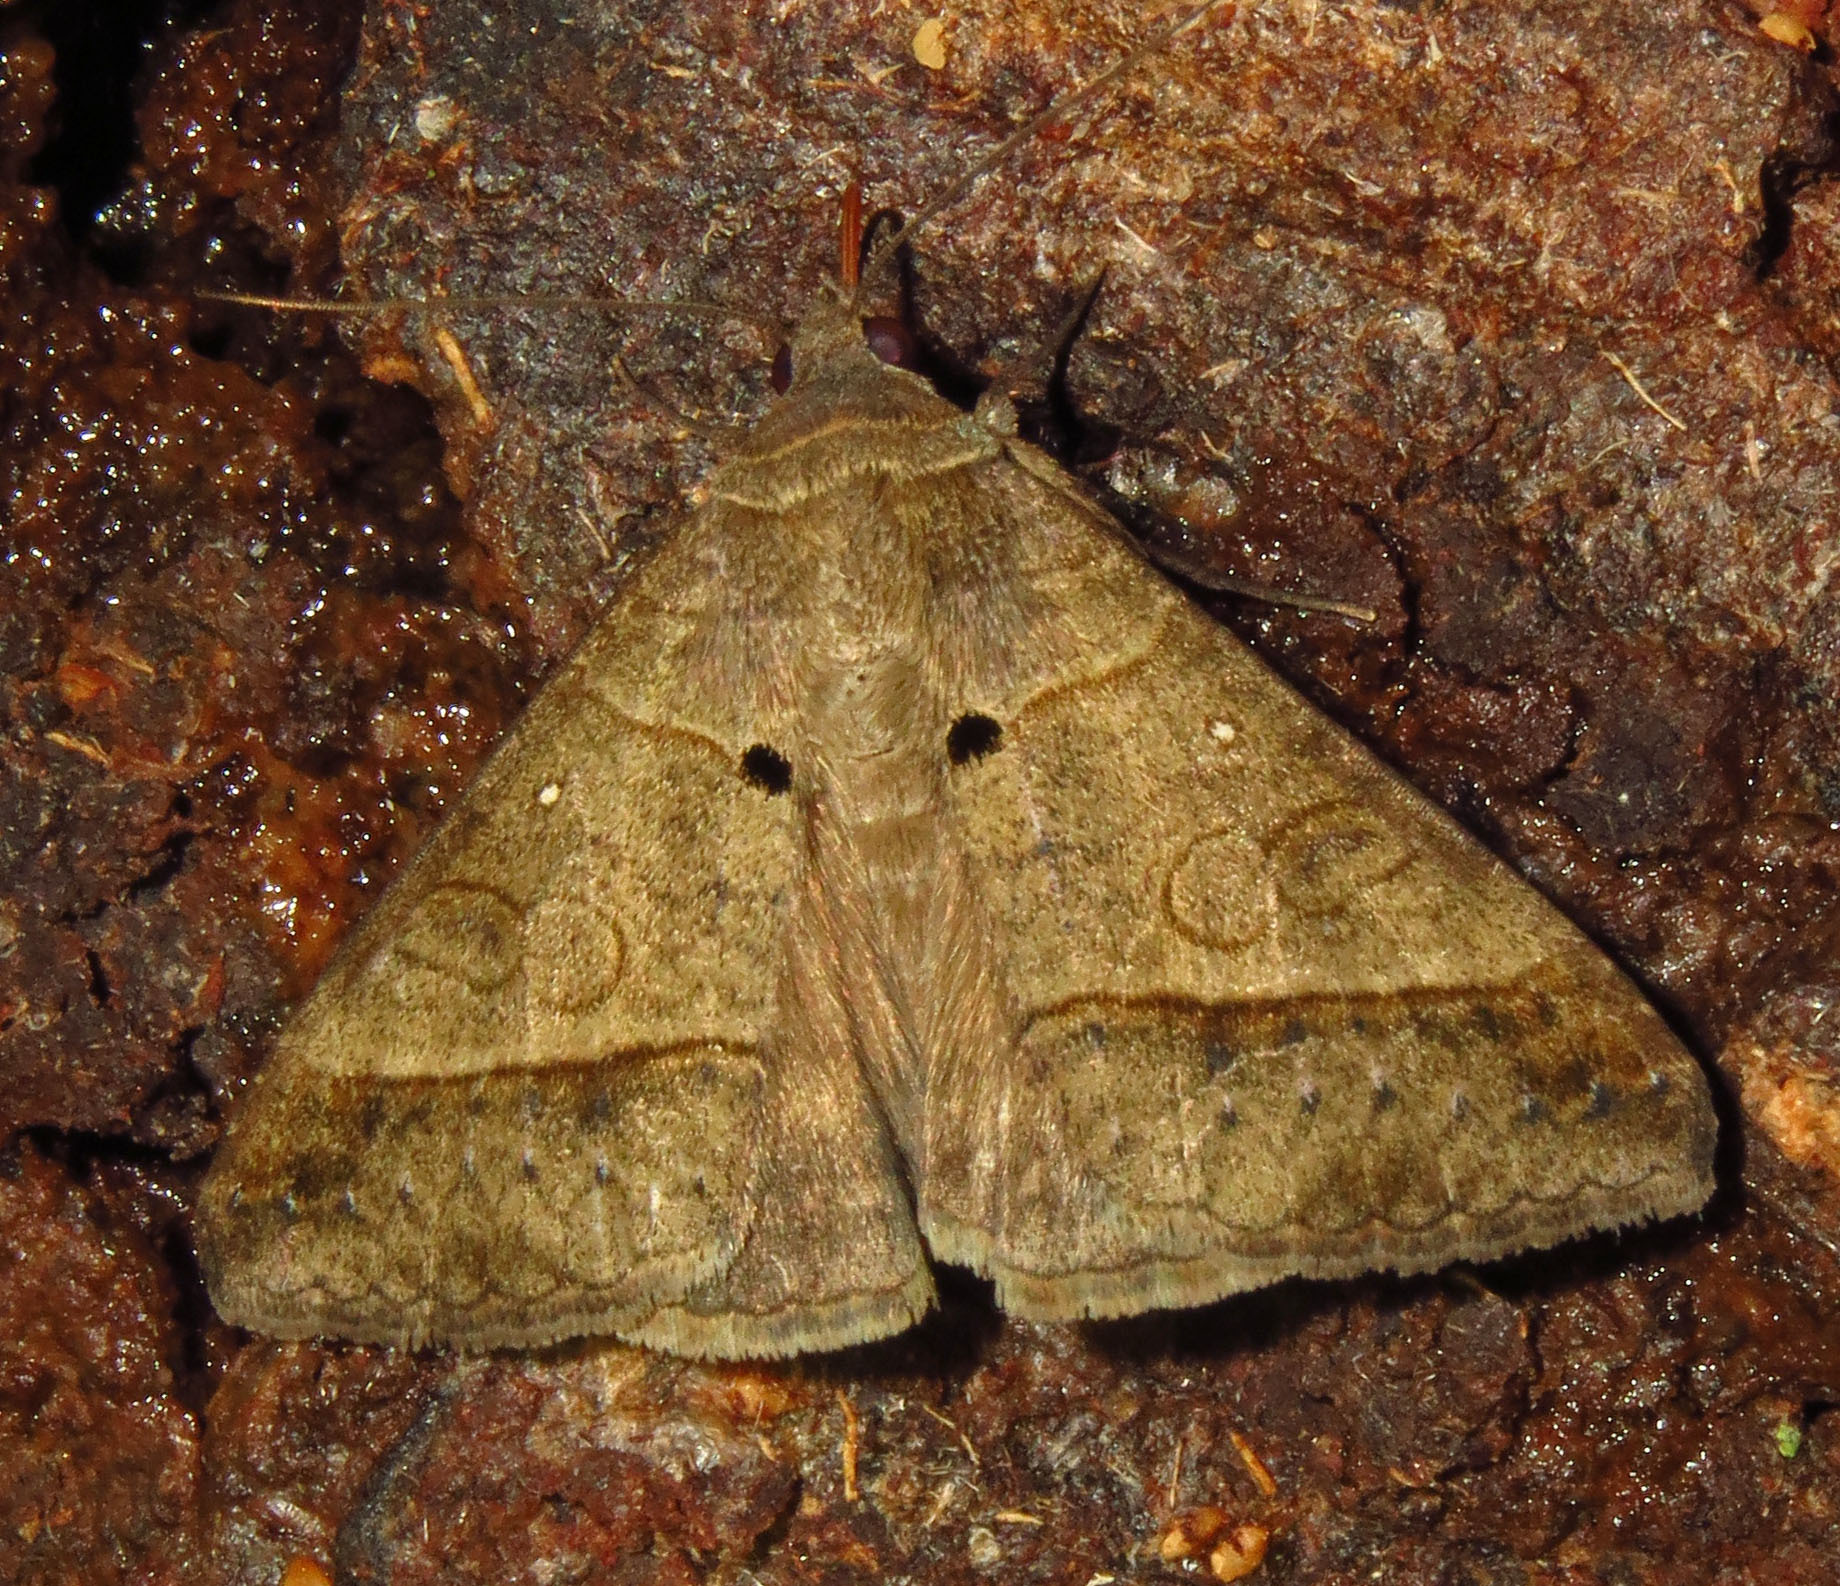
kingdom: Animalia
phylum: Arthropoda
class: Insecta
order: Lepidoptera
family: Erebidae
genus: Mocis
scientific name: Mocis latipes
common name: Striped grass looper
